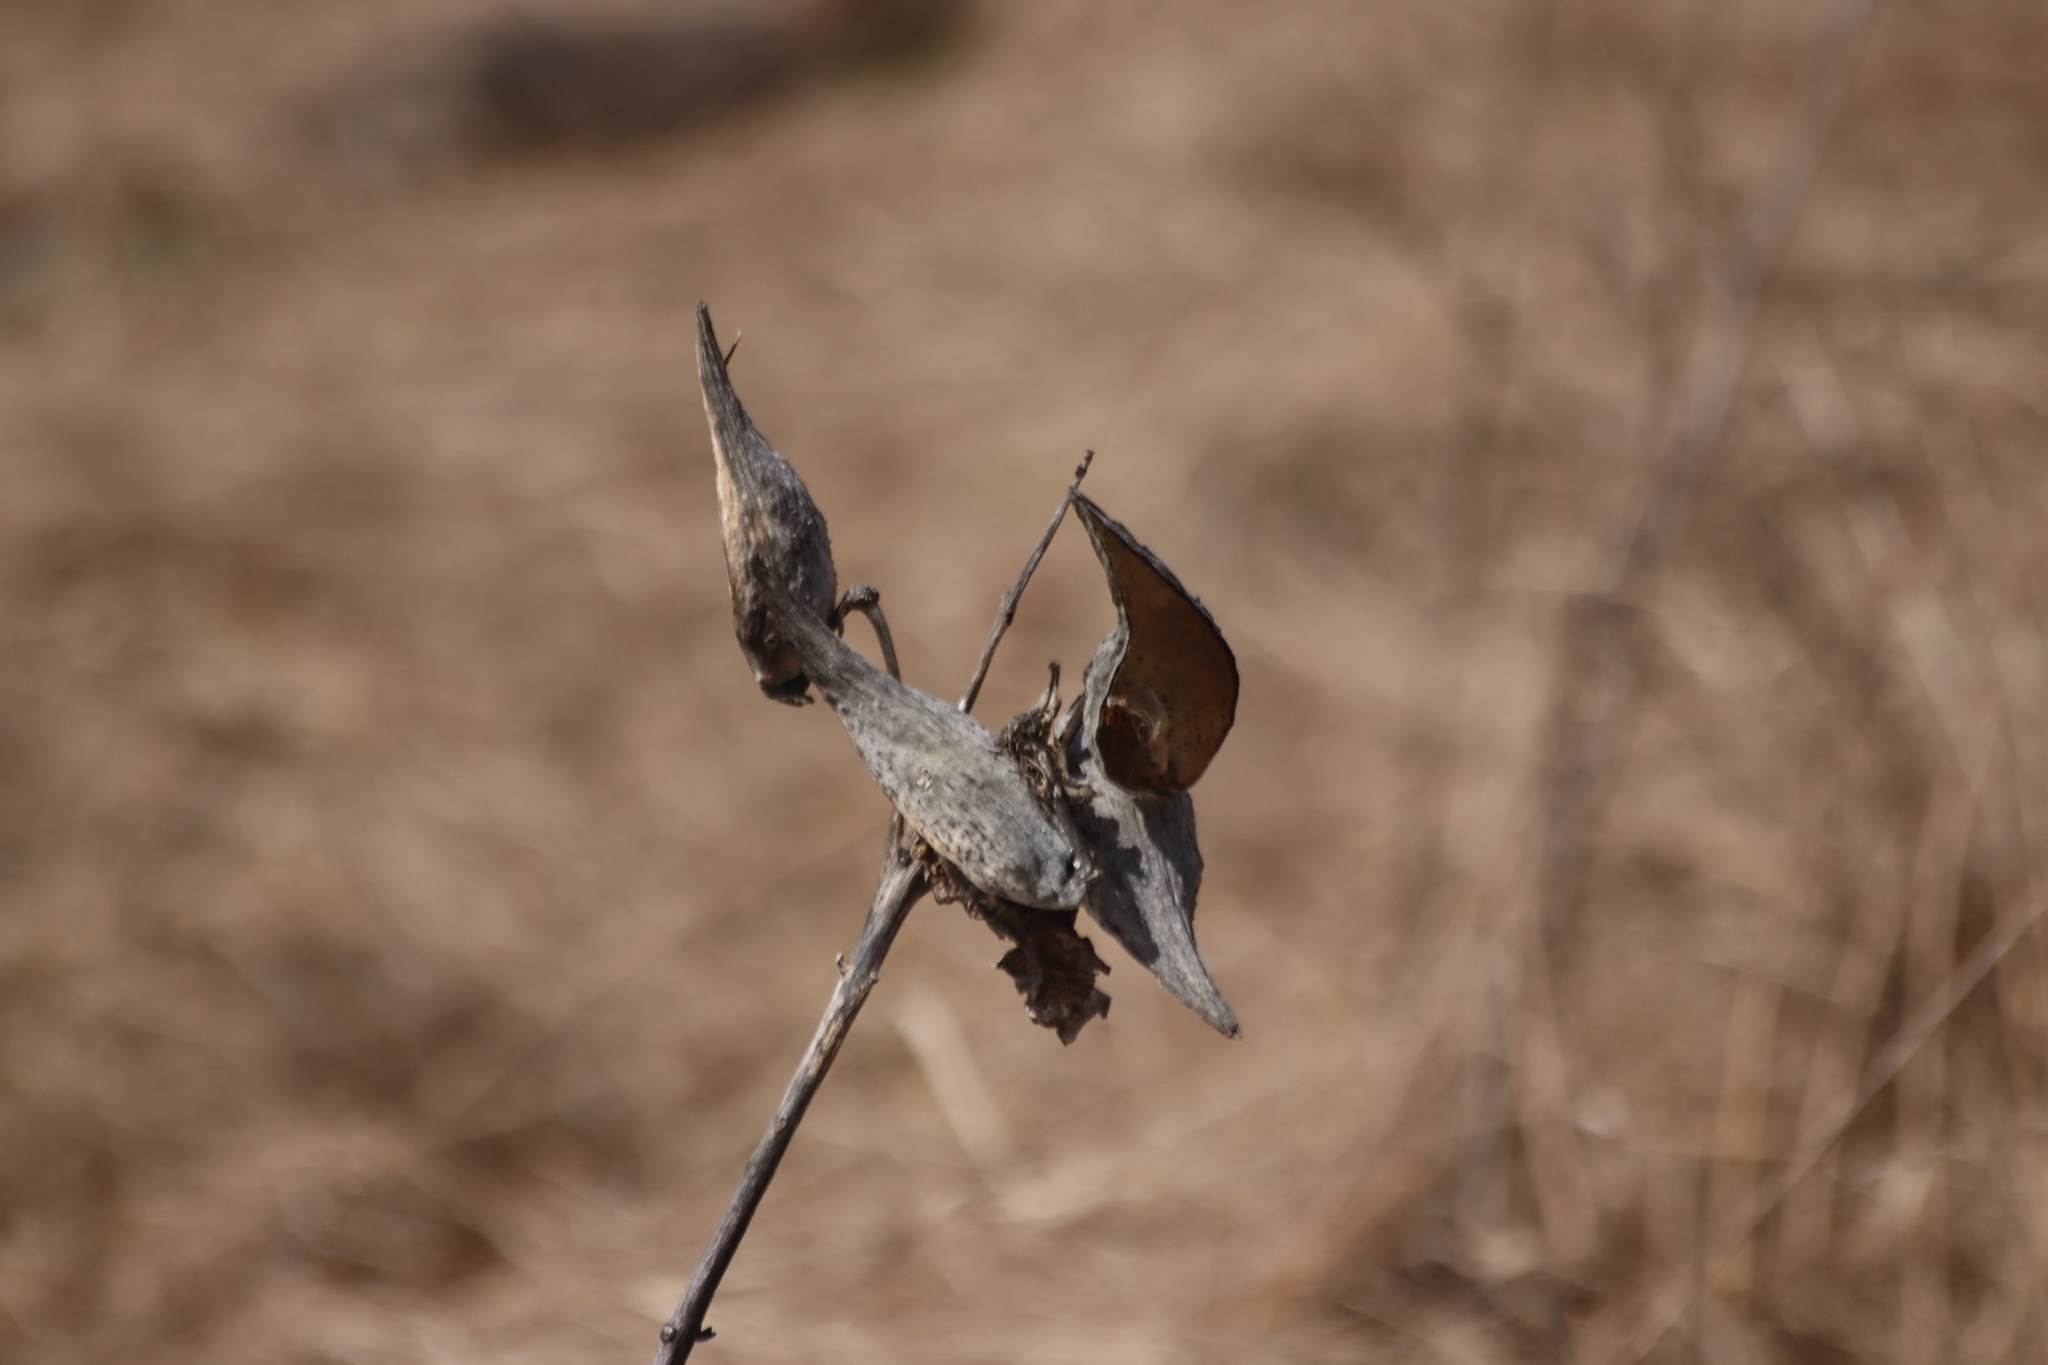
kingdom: Plantae
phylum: Tracheophyta
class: Magnoliopsida
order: Gentianales
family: Apocynaceae
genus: Asclepias
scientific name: Asclepias syriaca
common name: Common milkweed
